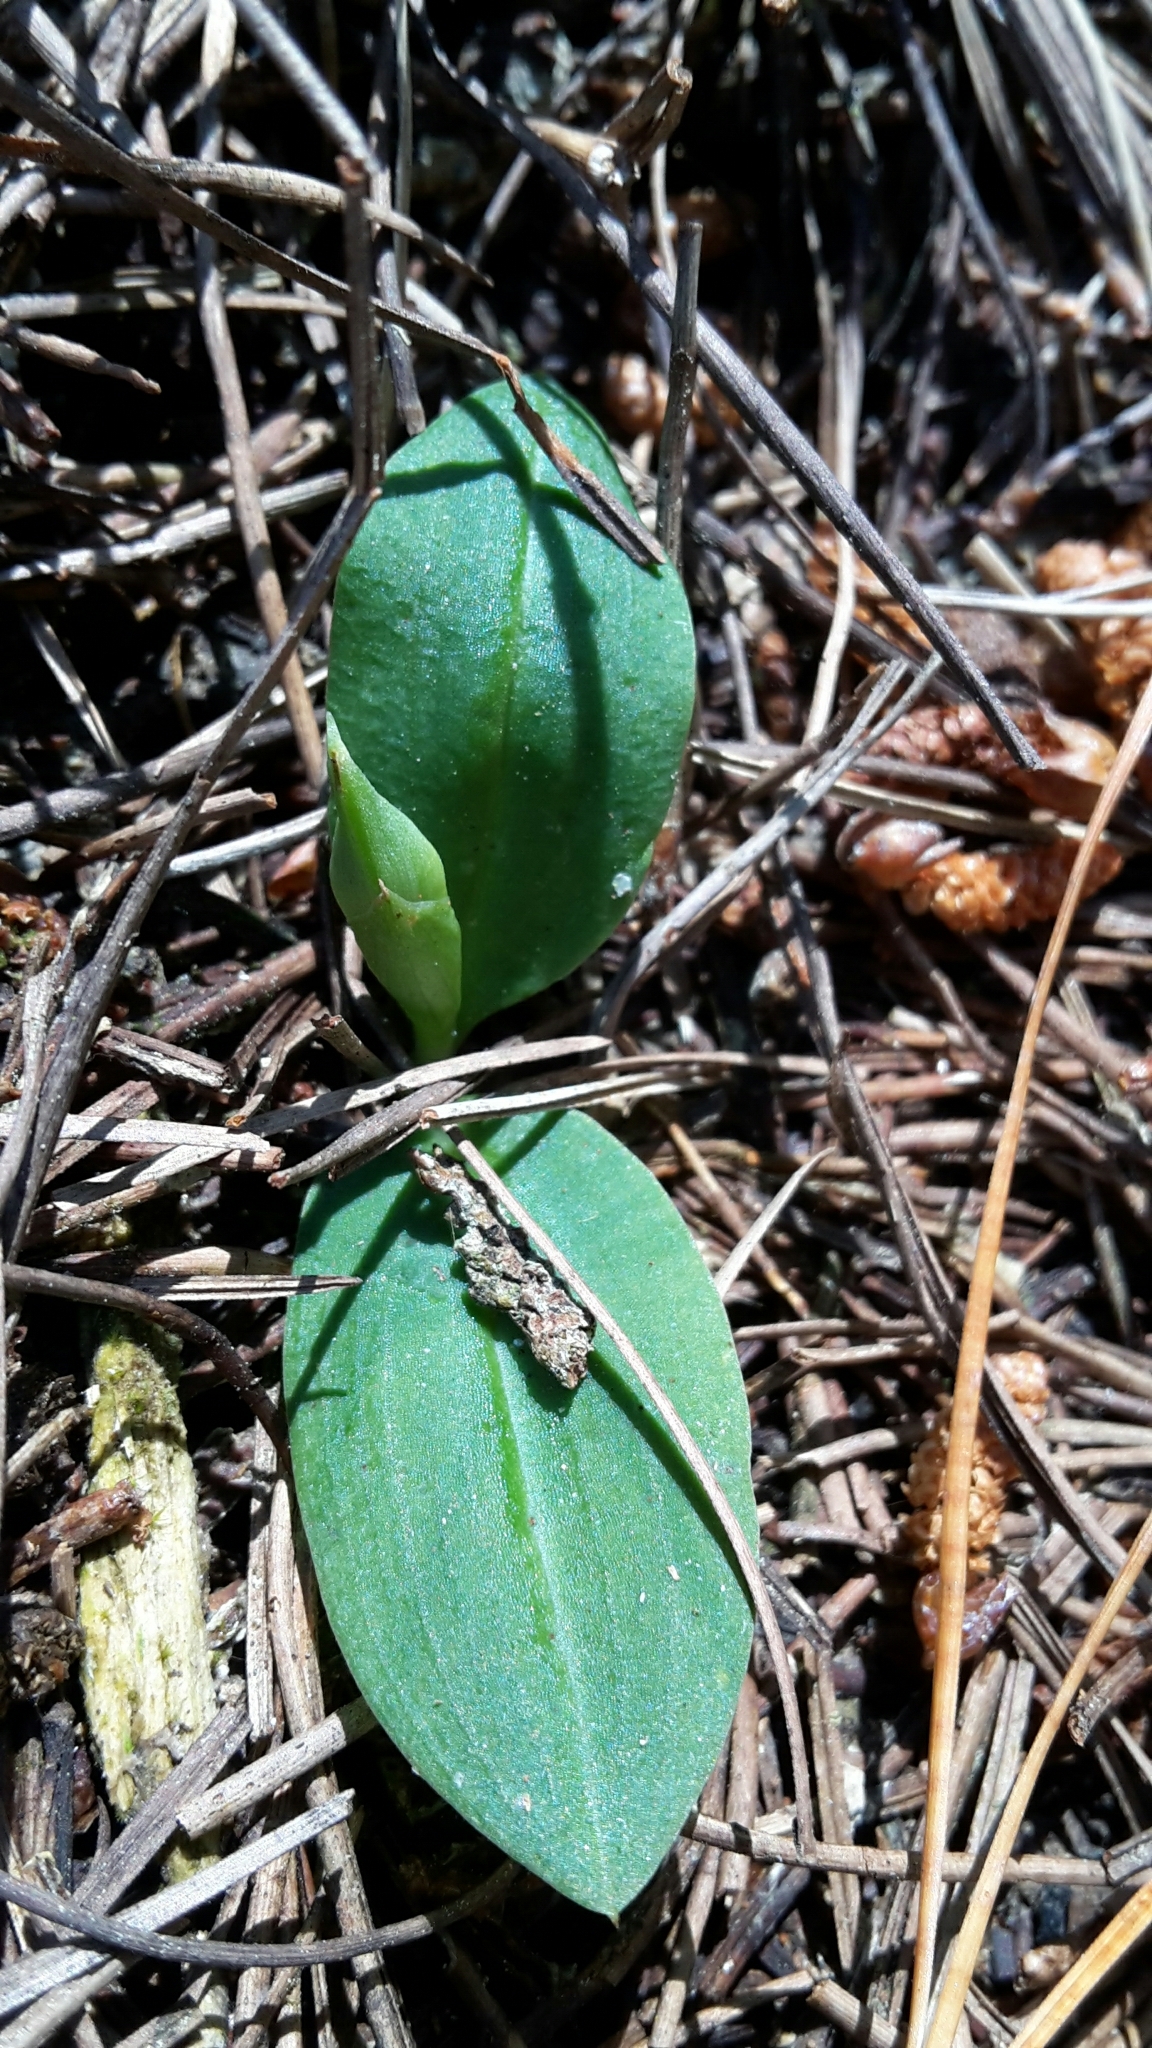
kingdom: Plantae
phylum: Tracheophyta
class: Liliopsida
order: Asparagales
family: Orchidaceae
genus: Chiloglottis
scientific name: Chiloglottis cornuta
